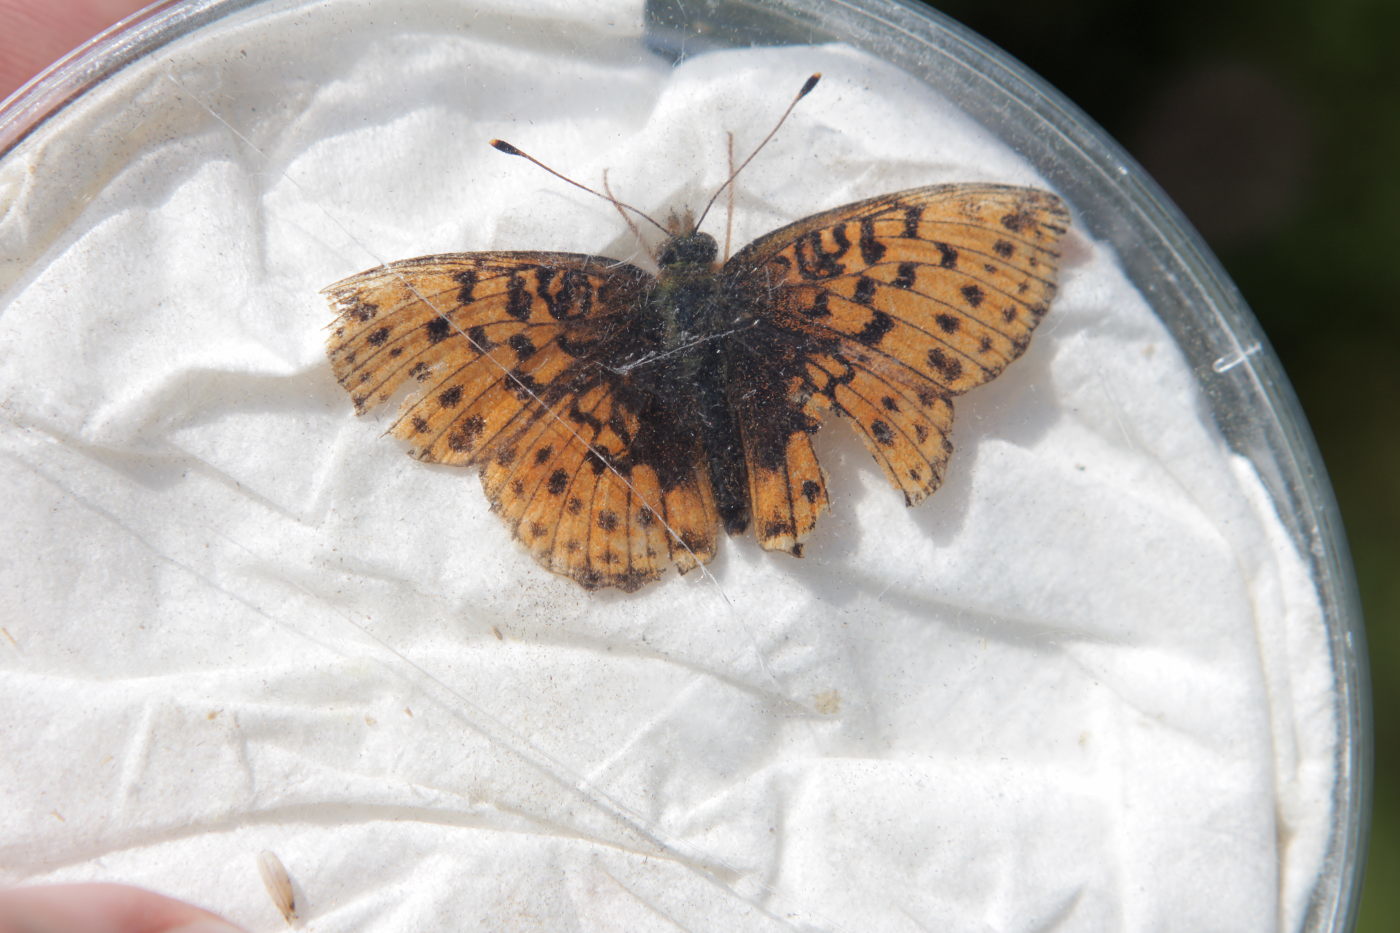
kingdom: Animalia
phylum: Arthropoda
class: Insecta
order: Lepidoptera
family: Nymphalidae
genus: Brenthis
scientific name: Brenthis ino
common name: Lesser marbled fritillary
